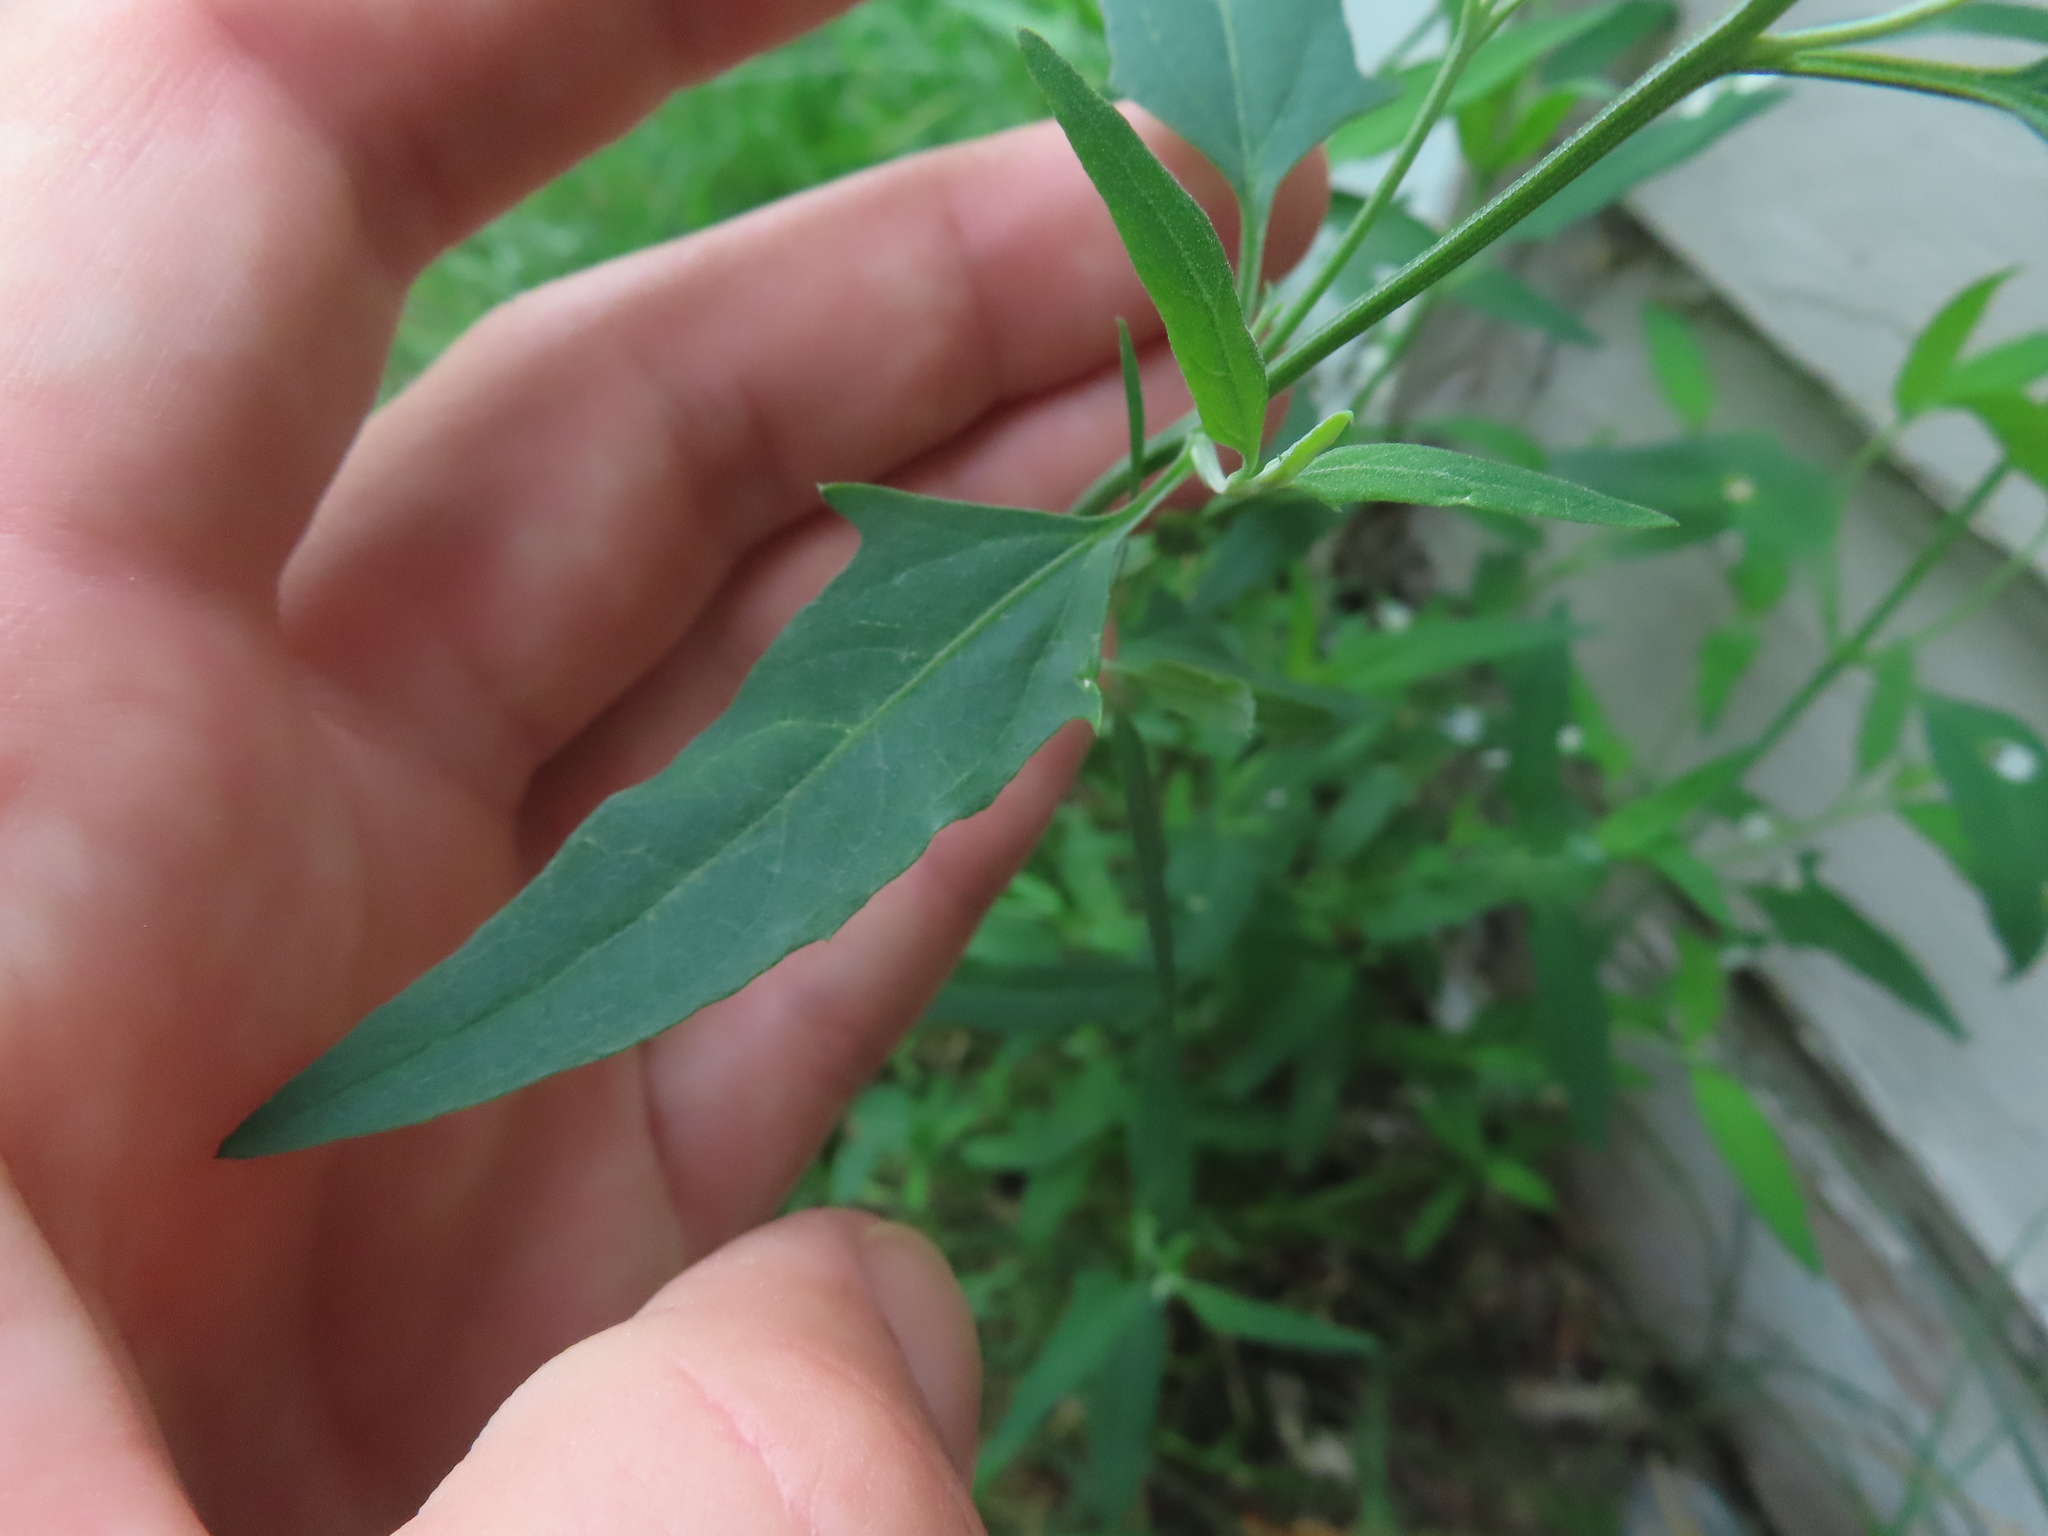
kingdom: Plantae
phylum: Tracheophyta
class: Magnoliopsida
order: Caryophyllales
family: Amaranthaceae
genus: Atriplex
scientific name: Atriplex patula
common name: Common orache
